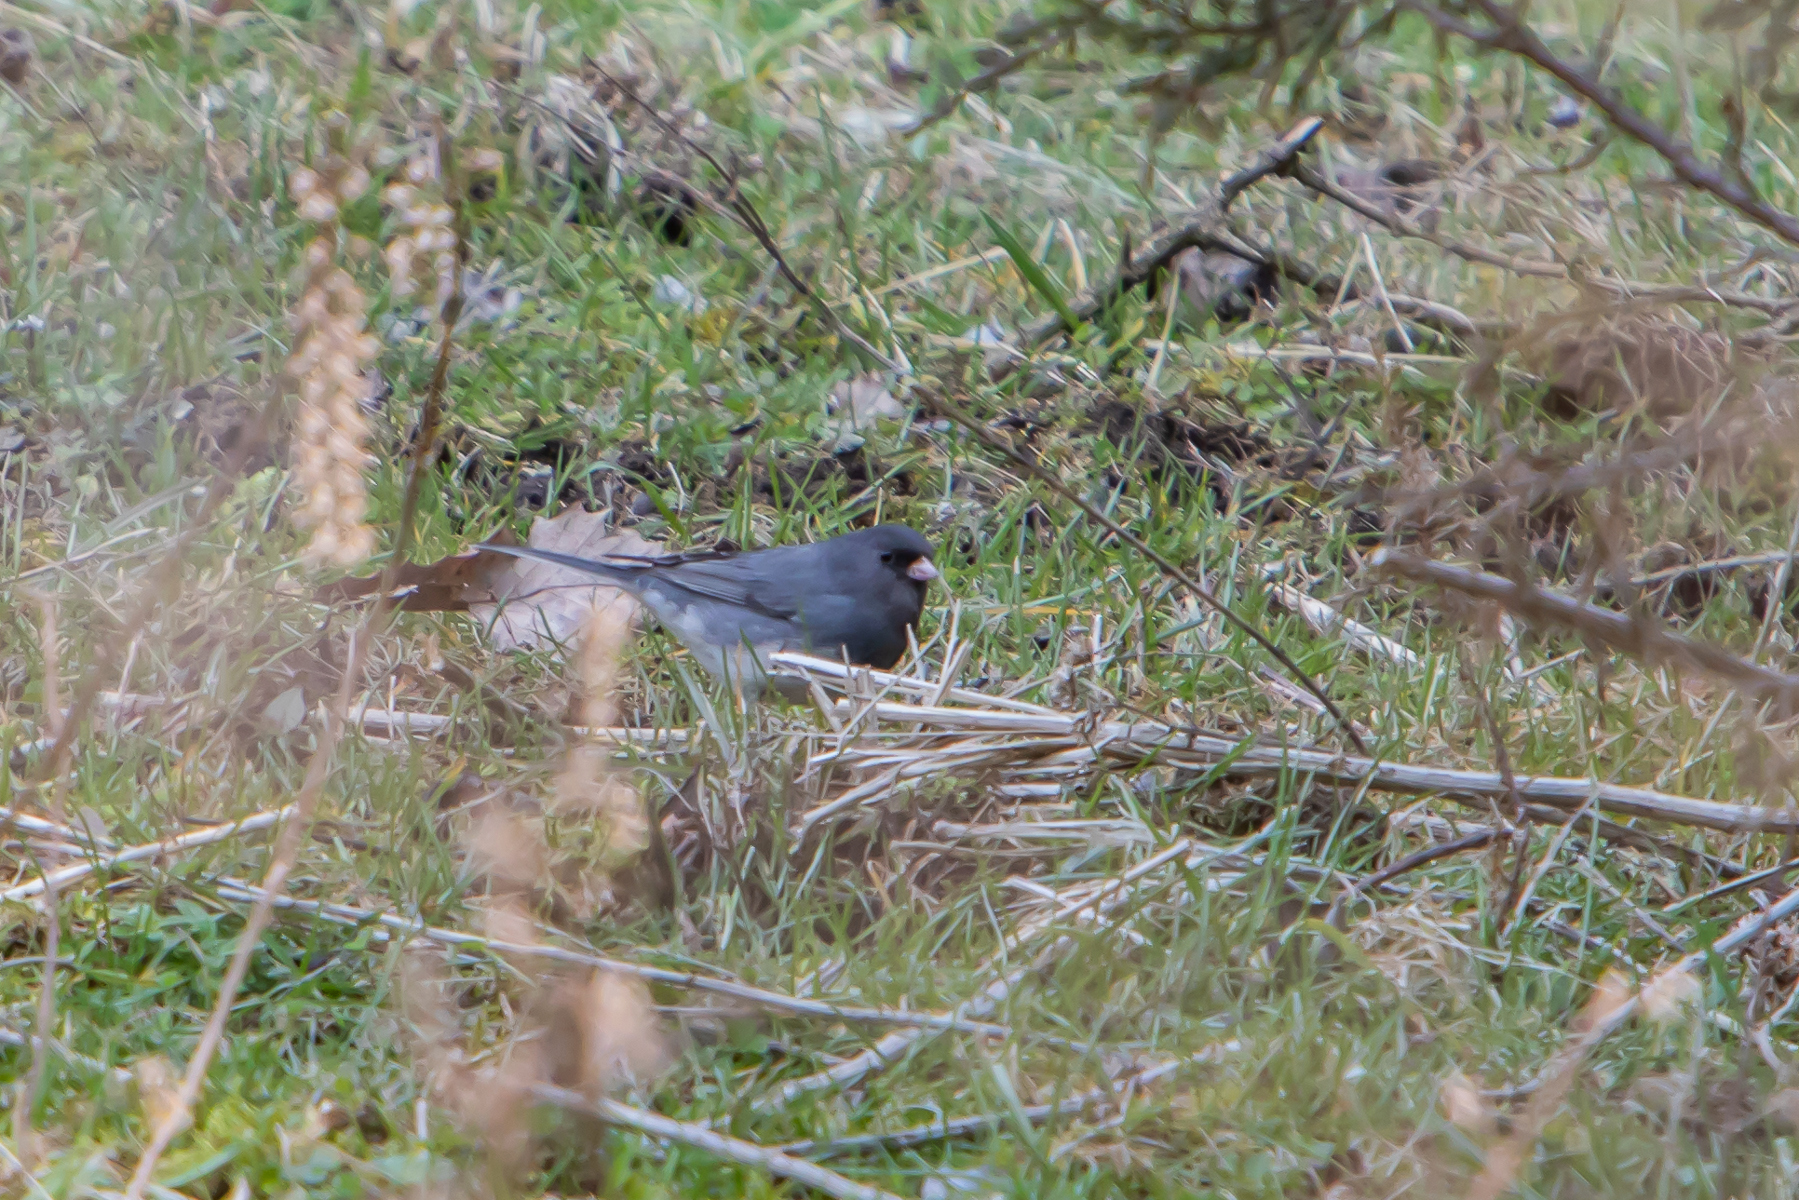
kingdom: Animalia
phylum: Chordata
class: Aves
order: Passeriformes
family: Passerellidae
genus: Junco
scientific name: Junco hyemalis
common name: Dark-eyed junco
